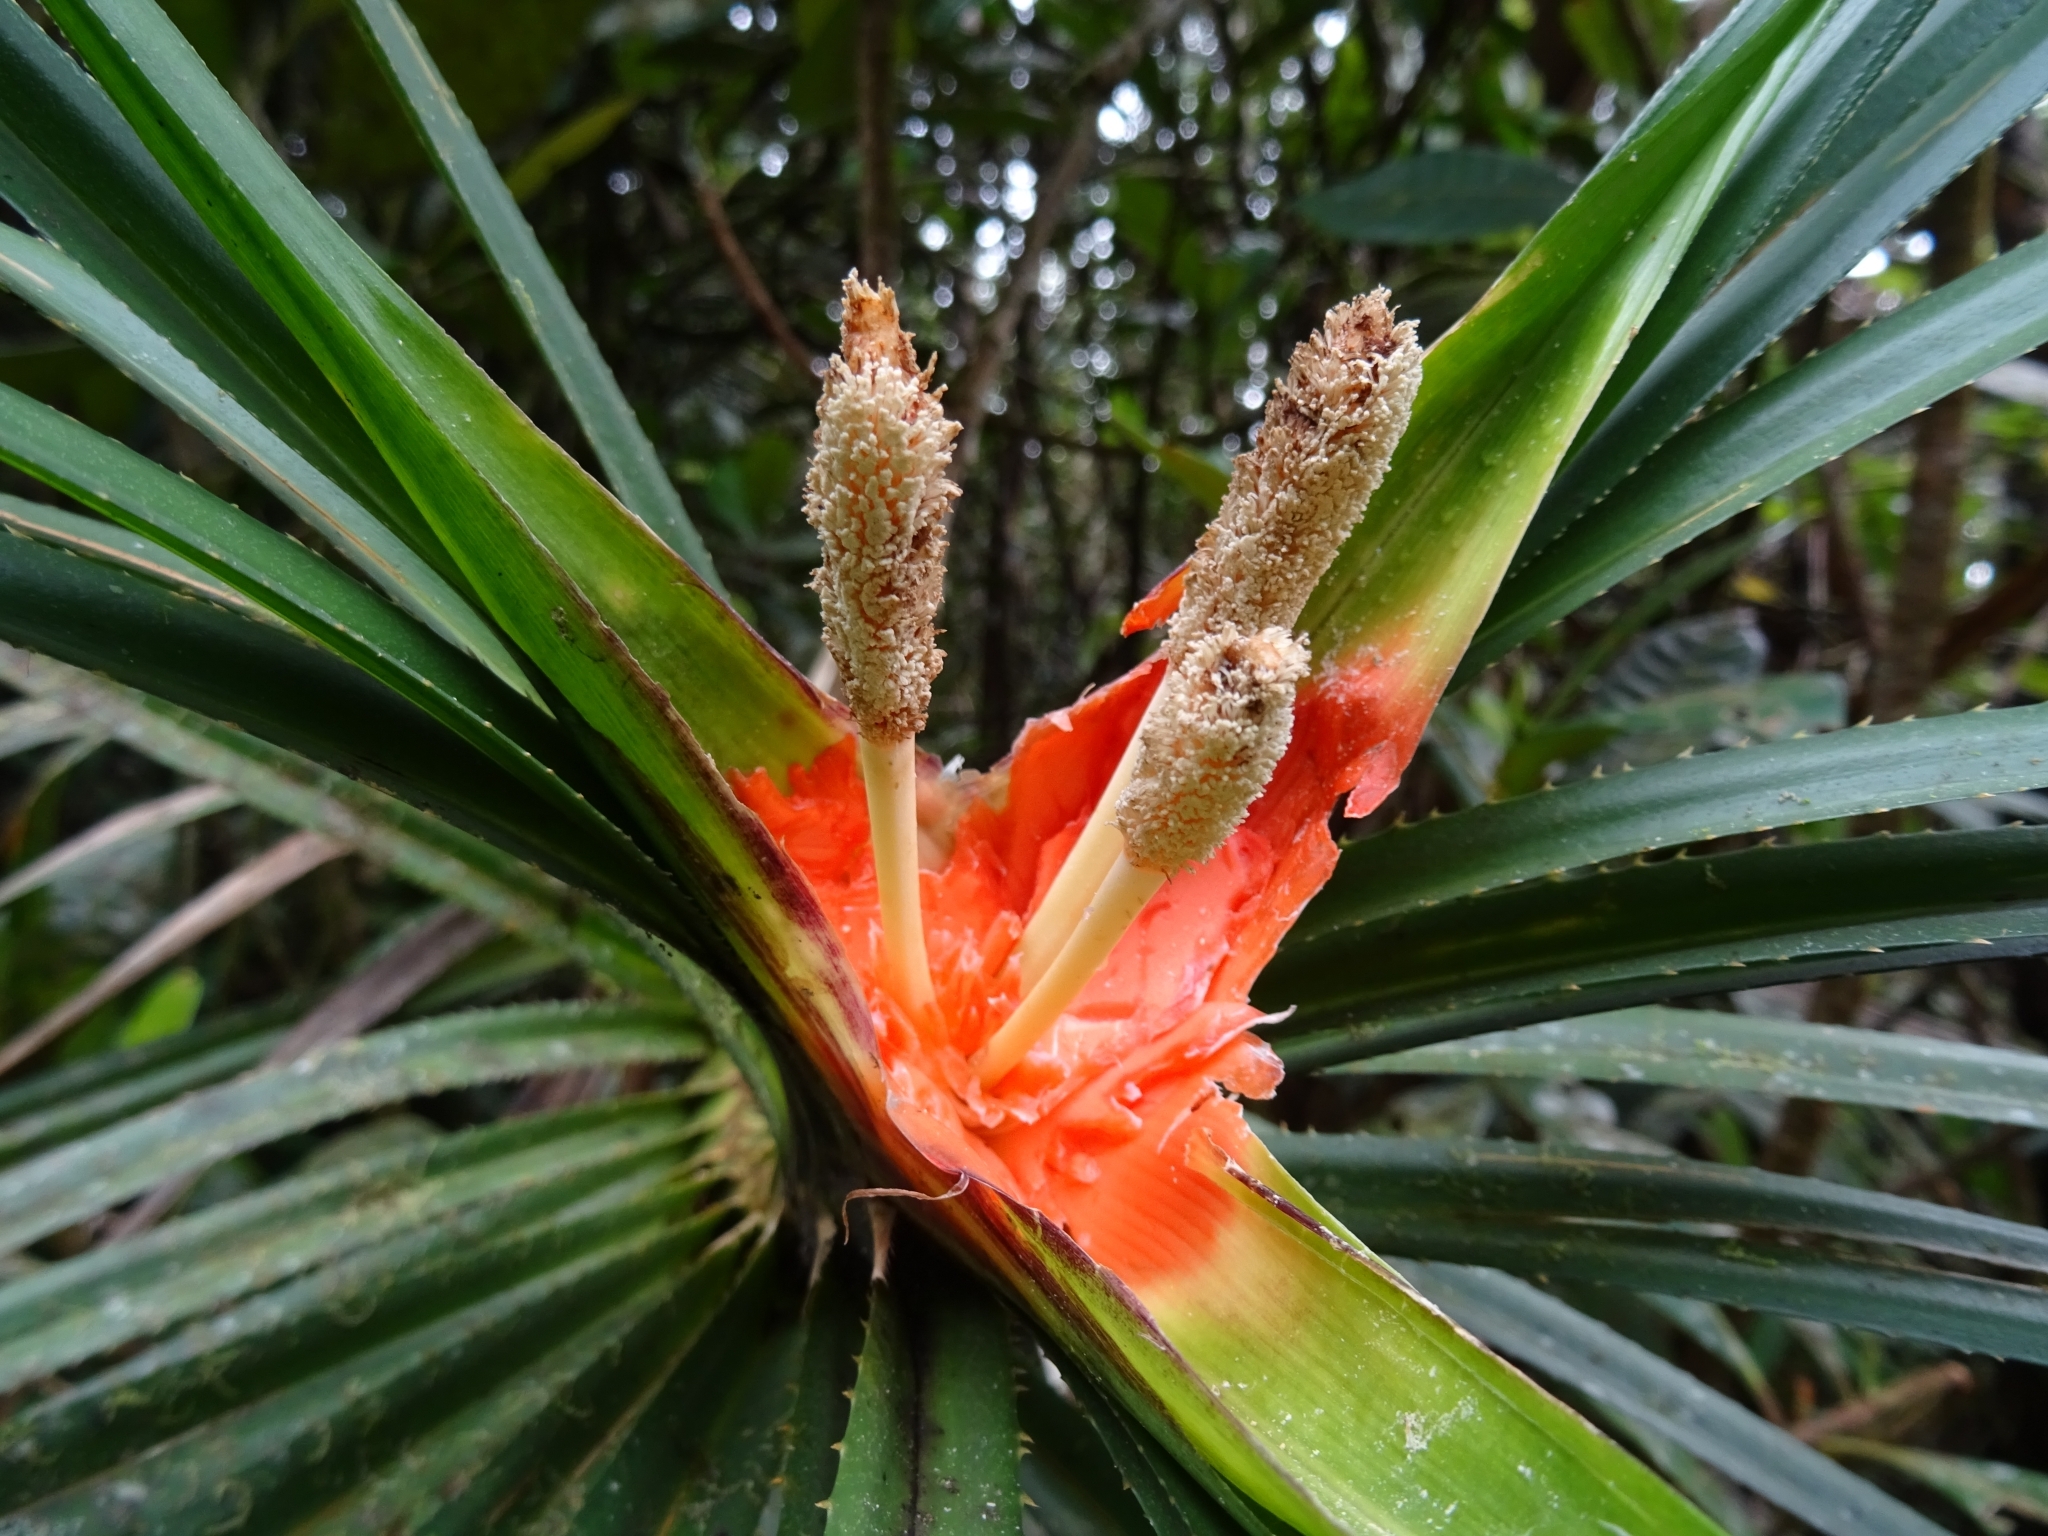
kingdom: Plantae
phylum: Tracheophyta
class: Liliopsida
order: Pandanales
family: Pandanaceae
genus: Freycinetia
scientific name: Freycinetia walkeri
